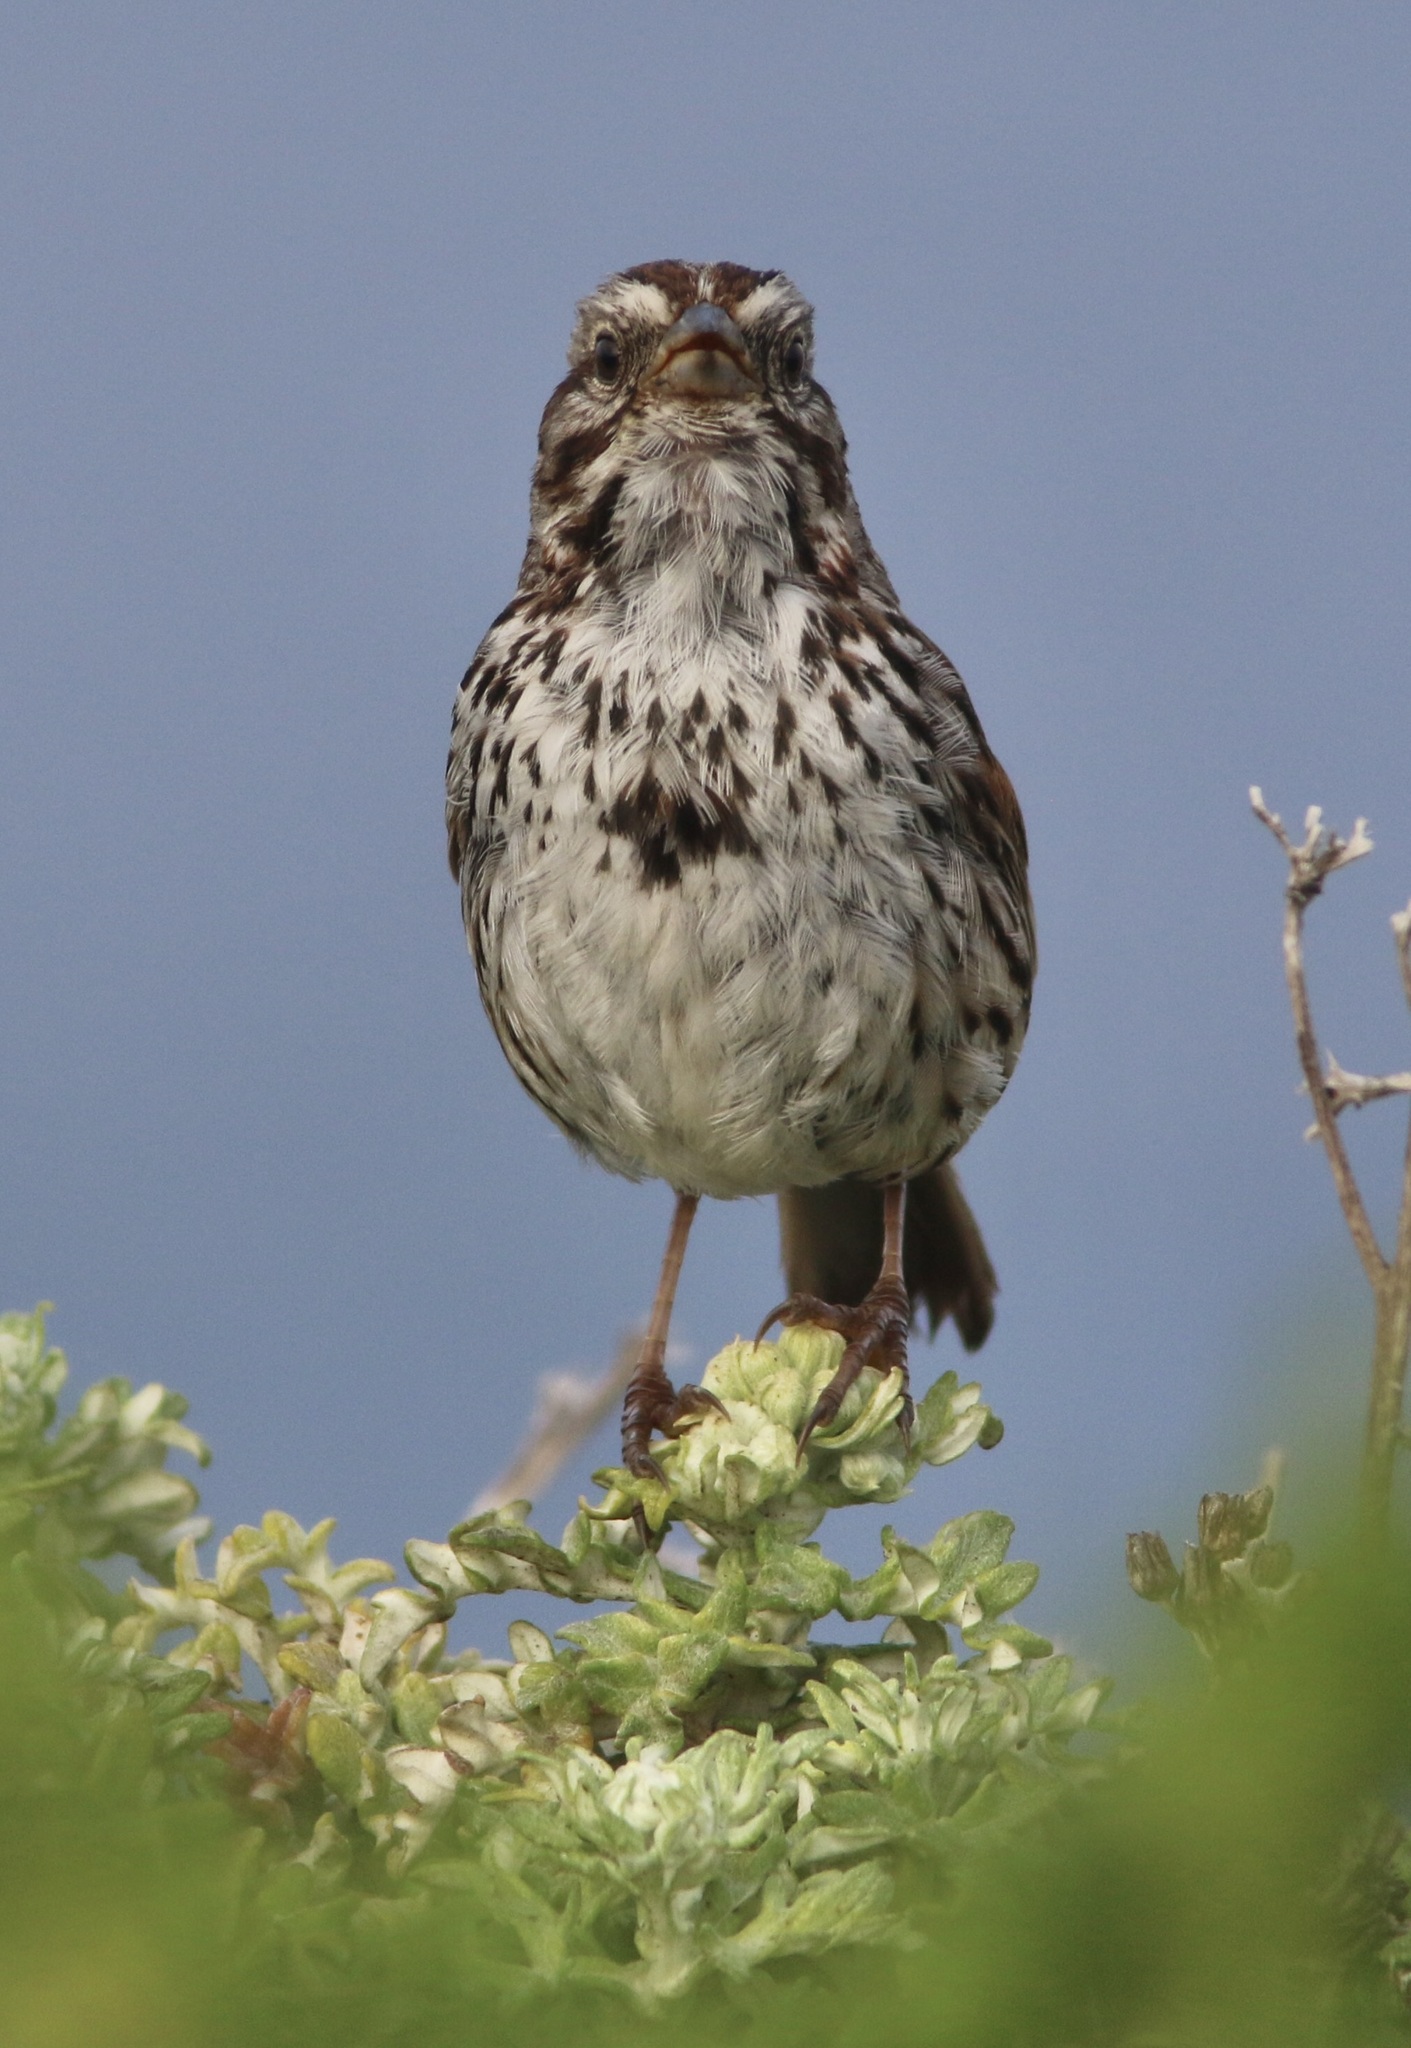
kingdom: Animalia
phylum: Chordata
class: Aves
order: Passeriformes
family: Passerellidae
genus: Melospiza
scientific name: Melospiza melodia
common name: Song sparrow
